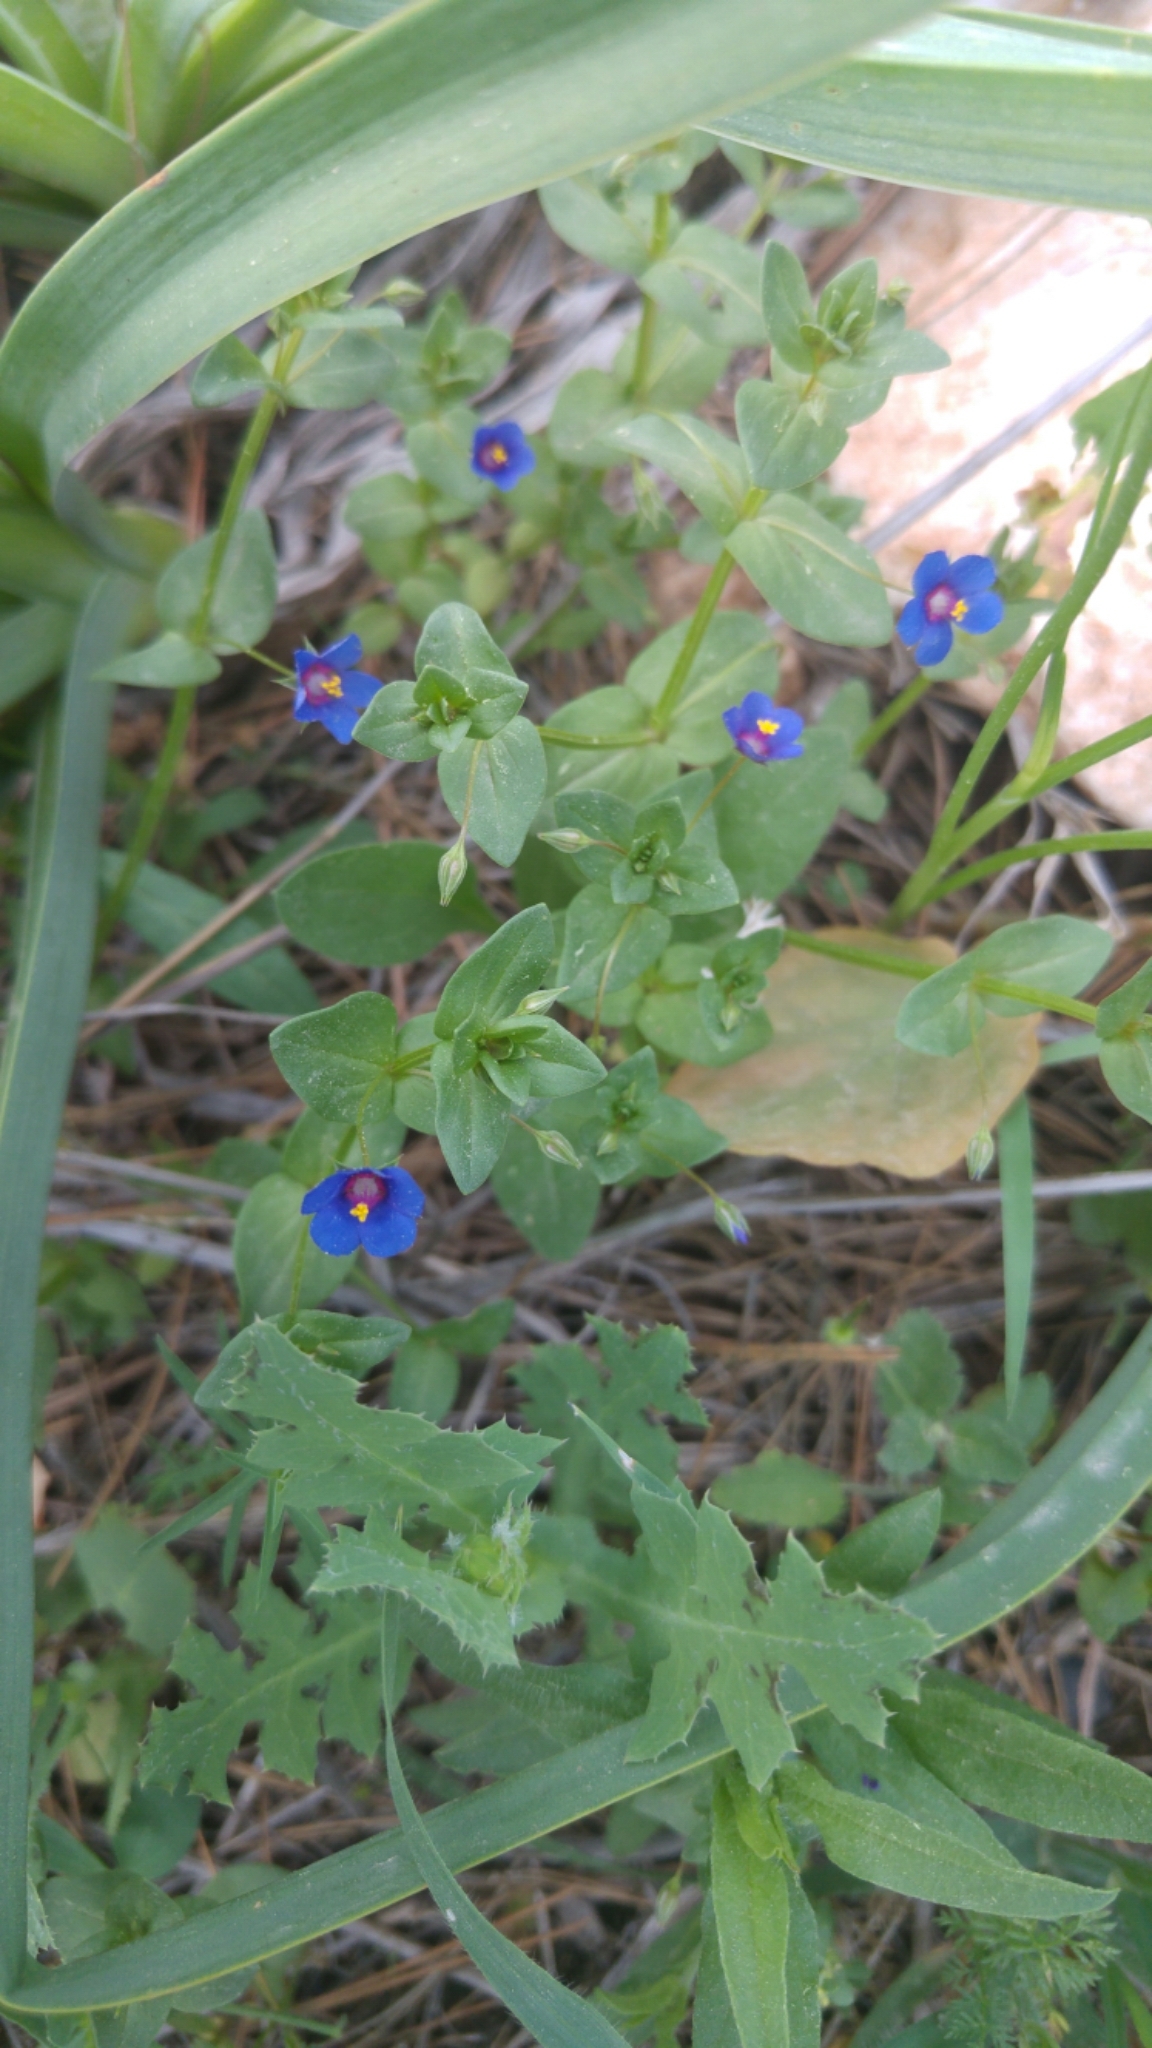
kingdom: Plantae
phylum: Tracheophyta
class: Magnoliopsida
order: Ericales
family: Primulaceae
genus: Lysimachia
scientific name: Lysimachia arvensis
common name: Scarlet pimpernel
